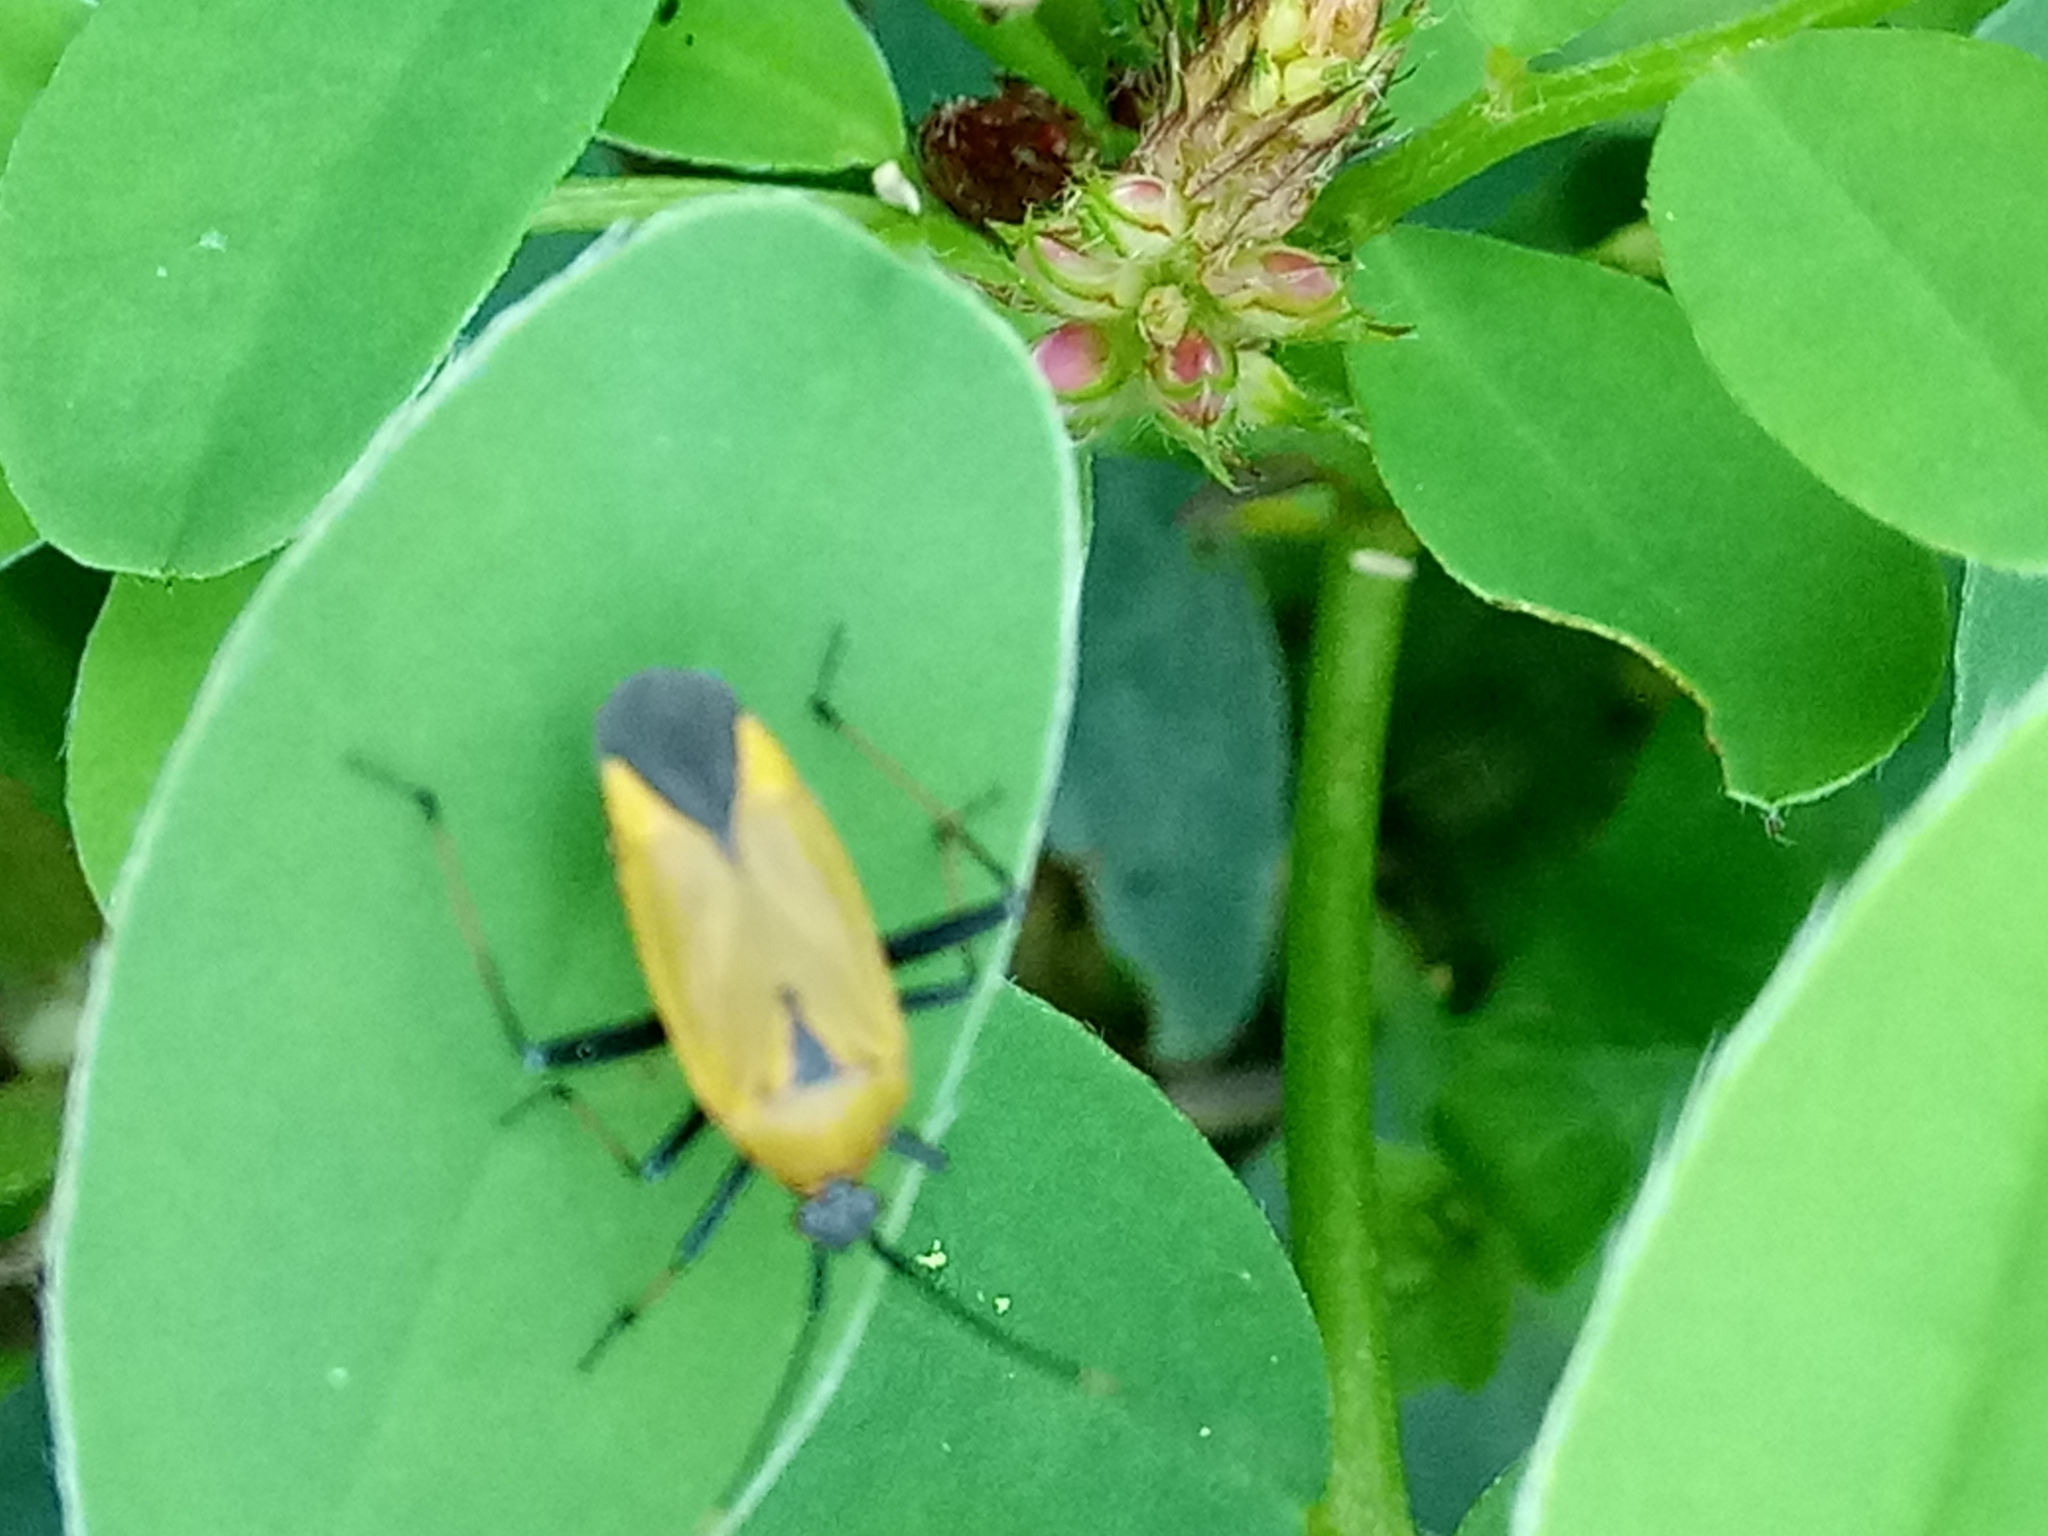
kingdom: Animalia
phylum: Arthropoda
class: Insecta
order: Hemiptera
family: Miridae
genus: Calocoris
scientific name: Calocoris nemoralis
